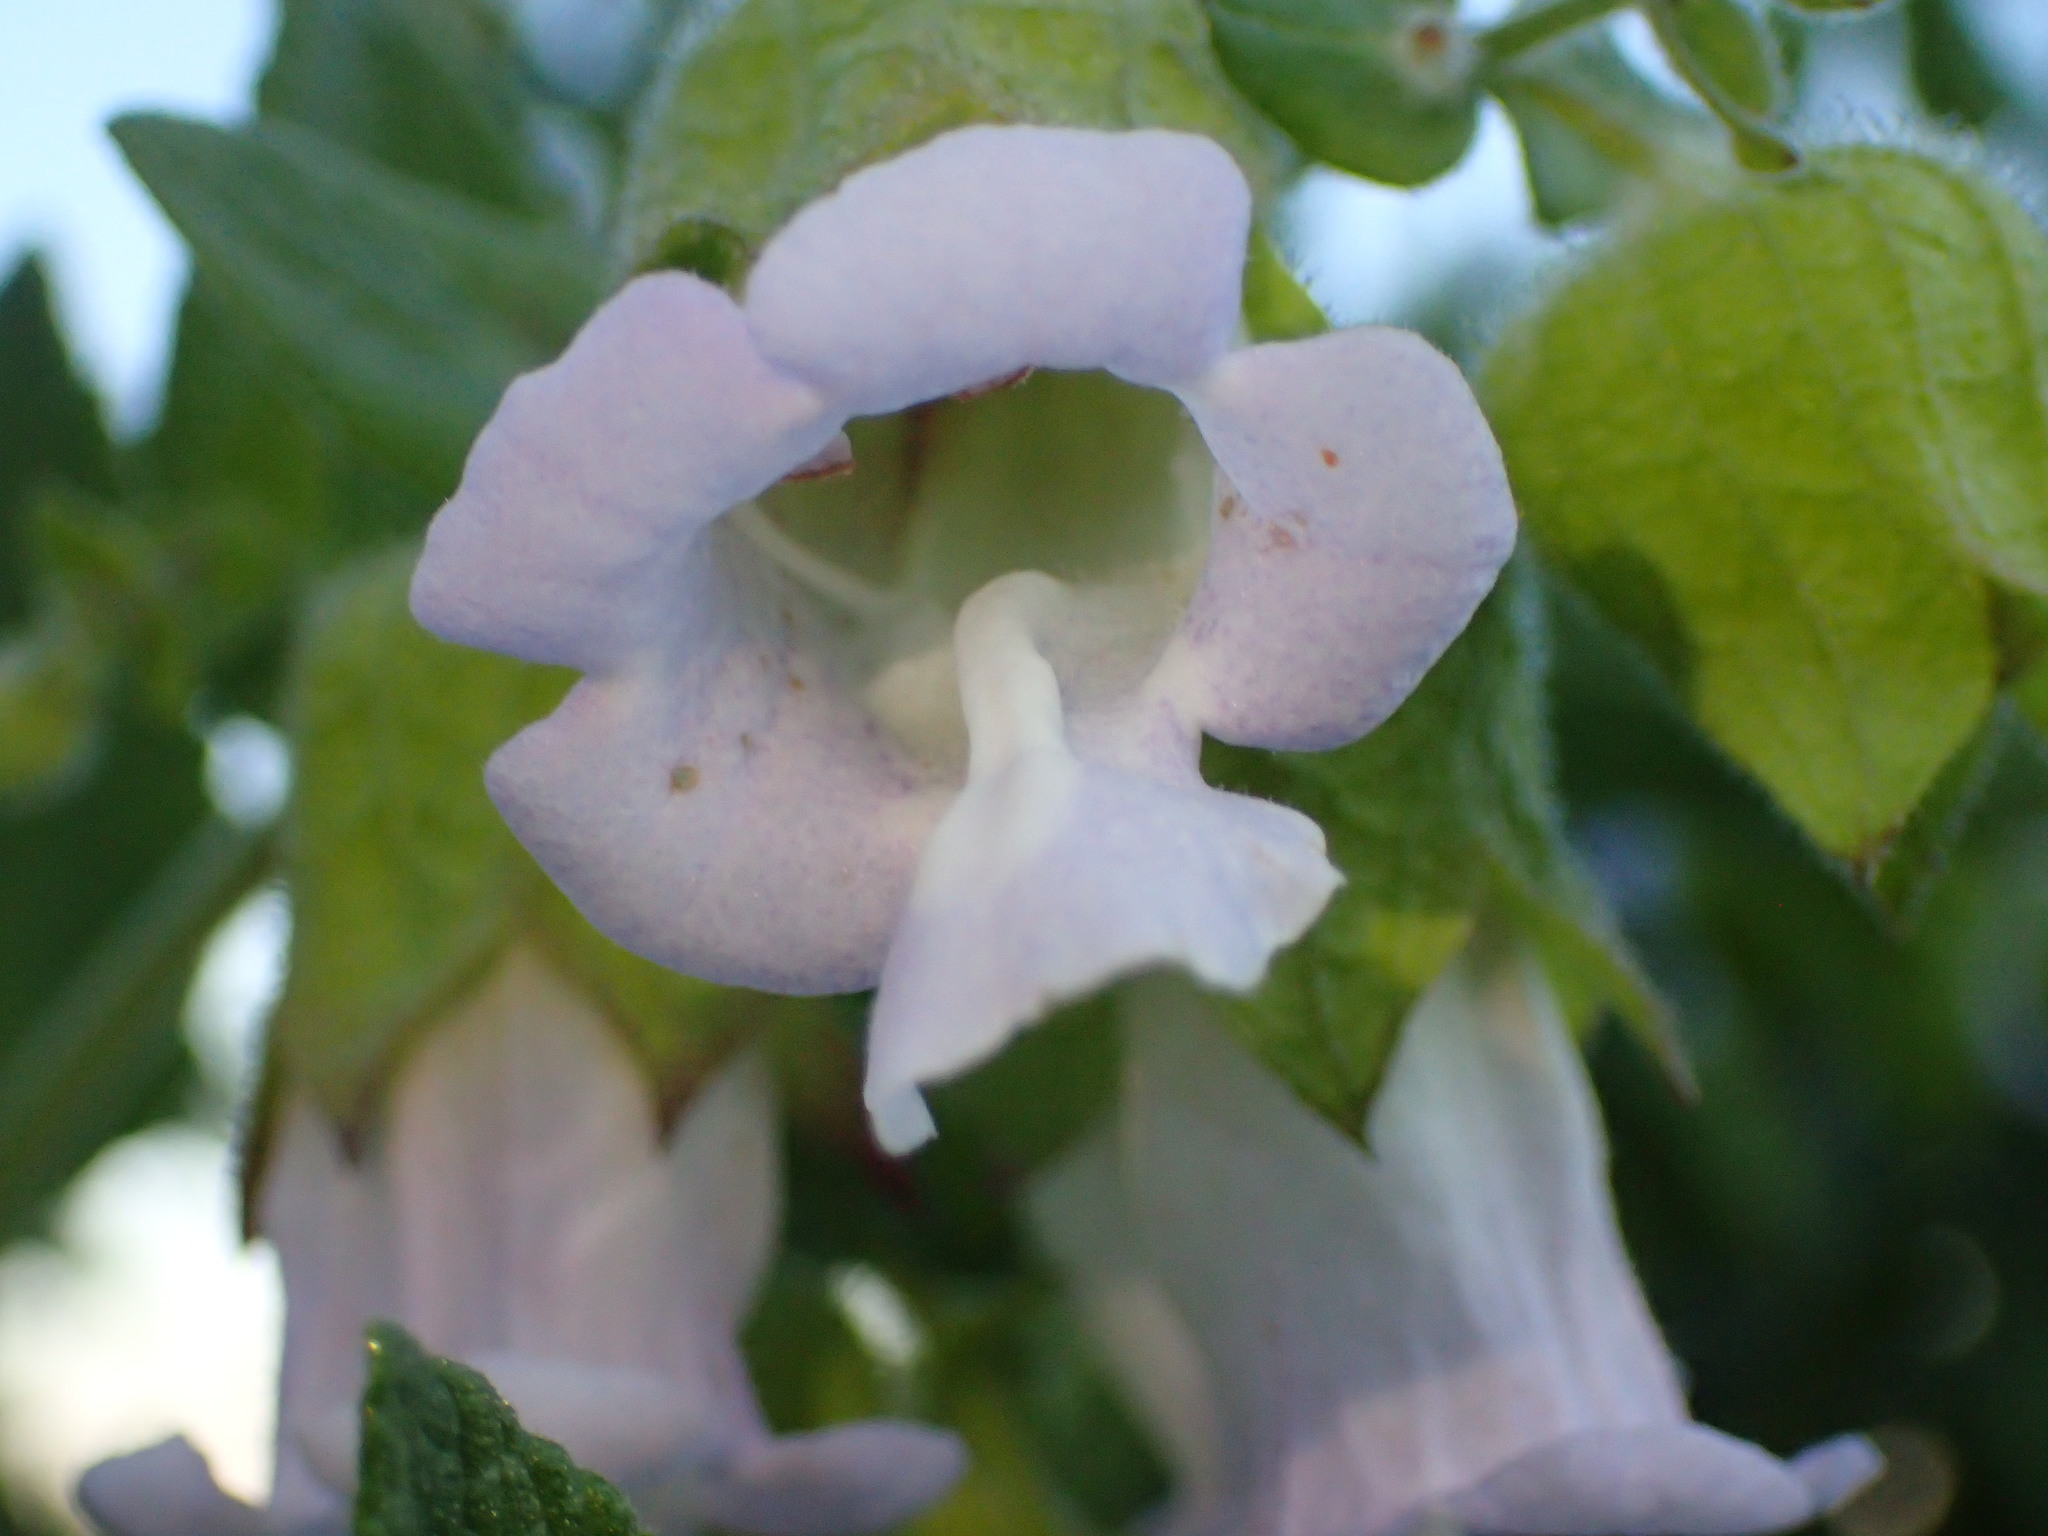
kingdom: Plantae
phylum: Tracheophyta
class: Magnoliopsida
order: Lamiales
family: Lamiaceae
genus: Lepechinia
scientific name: Lepechinia calycina
